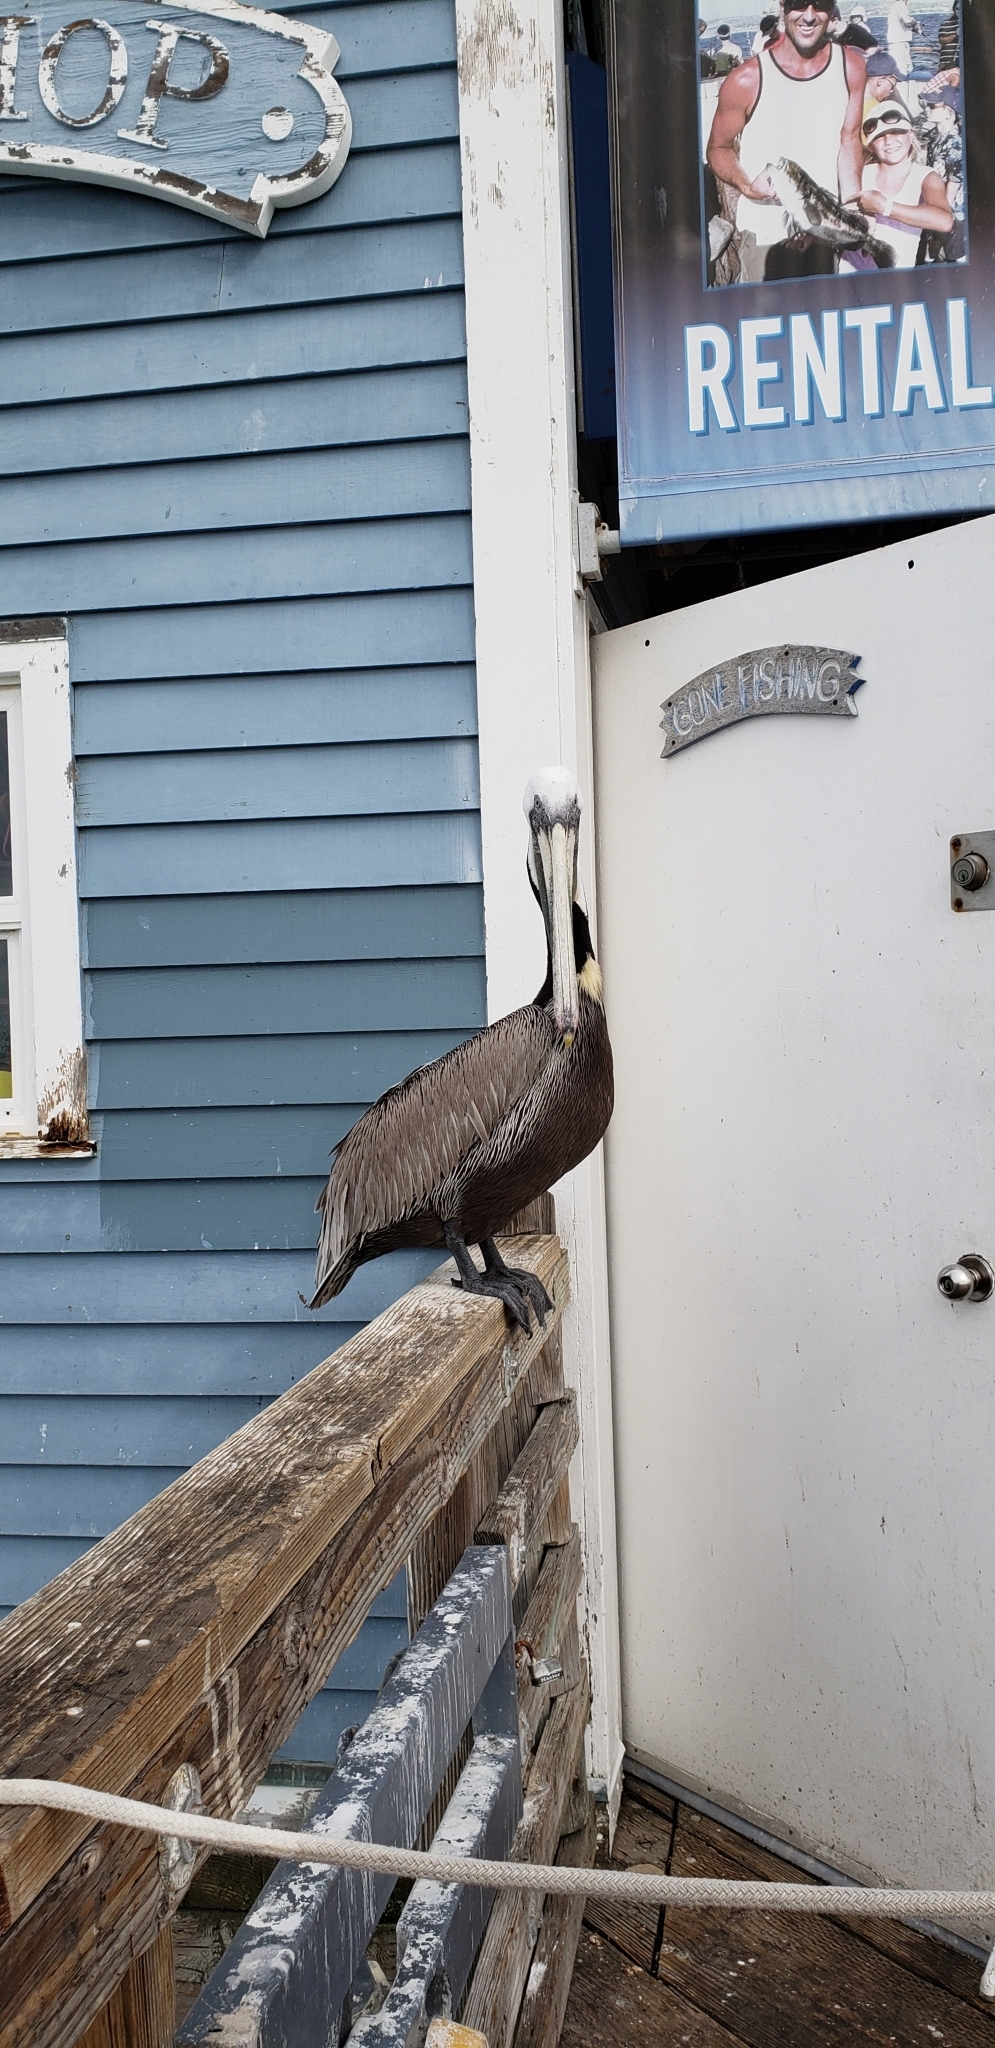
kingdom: Animalia
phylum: Chordata
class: Aves
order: Pelecaniformes
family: Pelecanidae
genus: Pelecanus
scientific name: Pelecanus occidentalis
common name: Brown pelican
